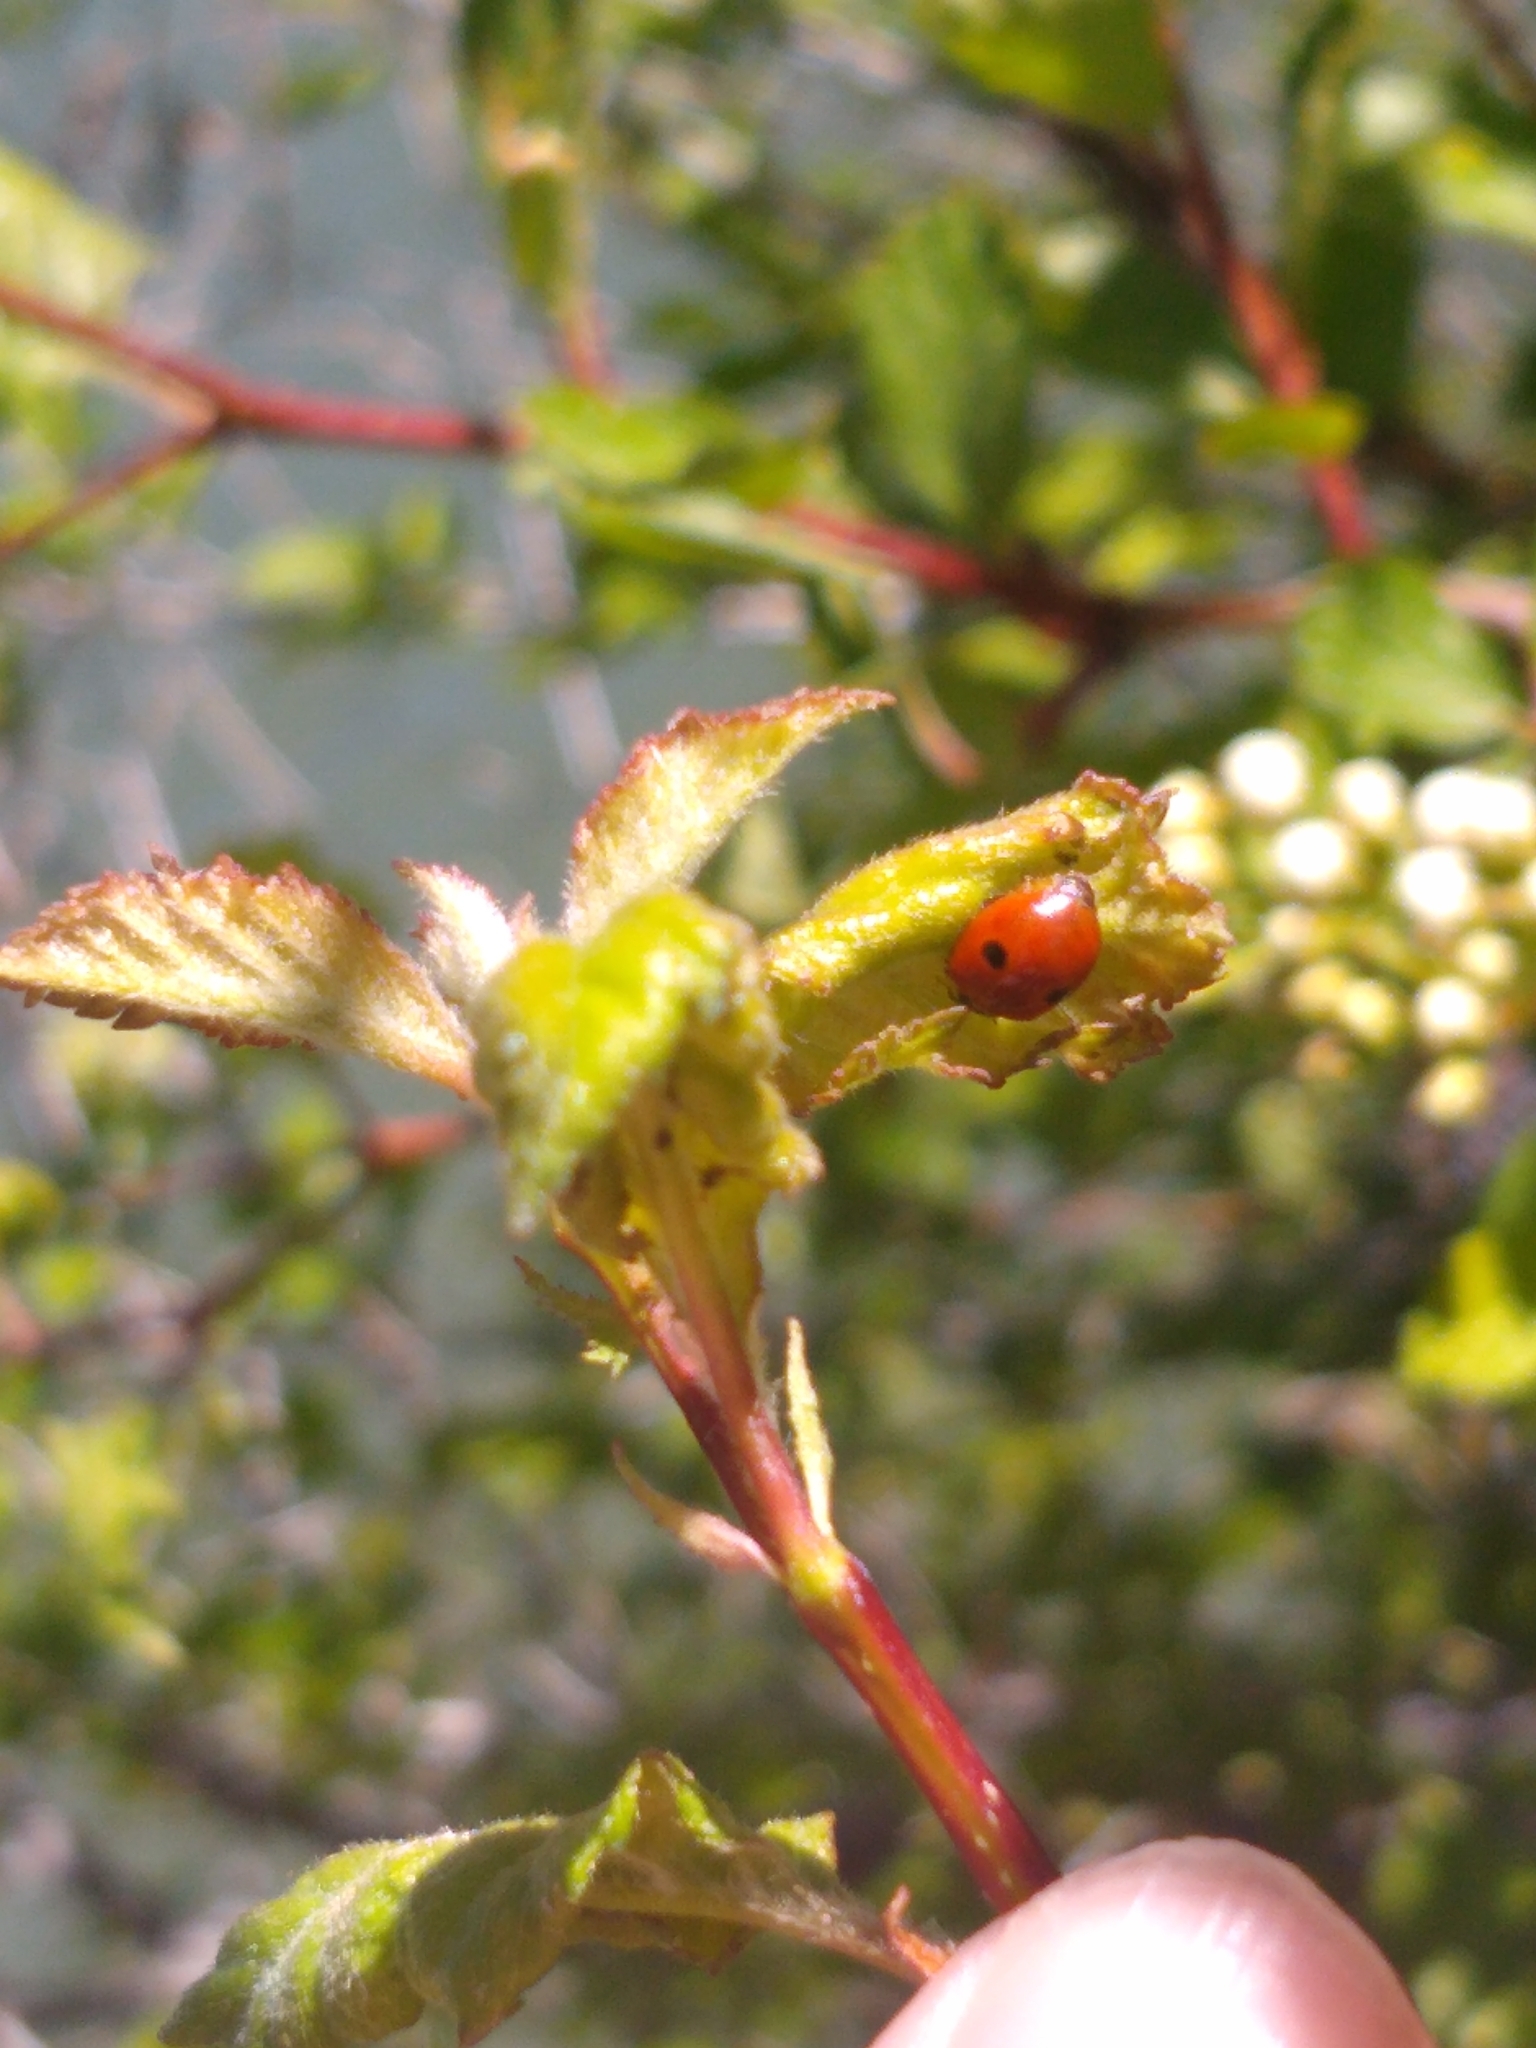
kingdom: Animalia
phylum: Arthropoda
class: Insecta
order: Coleoptera
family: Coccinellidae
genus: Adalia
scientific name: Adalia bipunctata
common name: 2-spot ladybird
